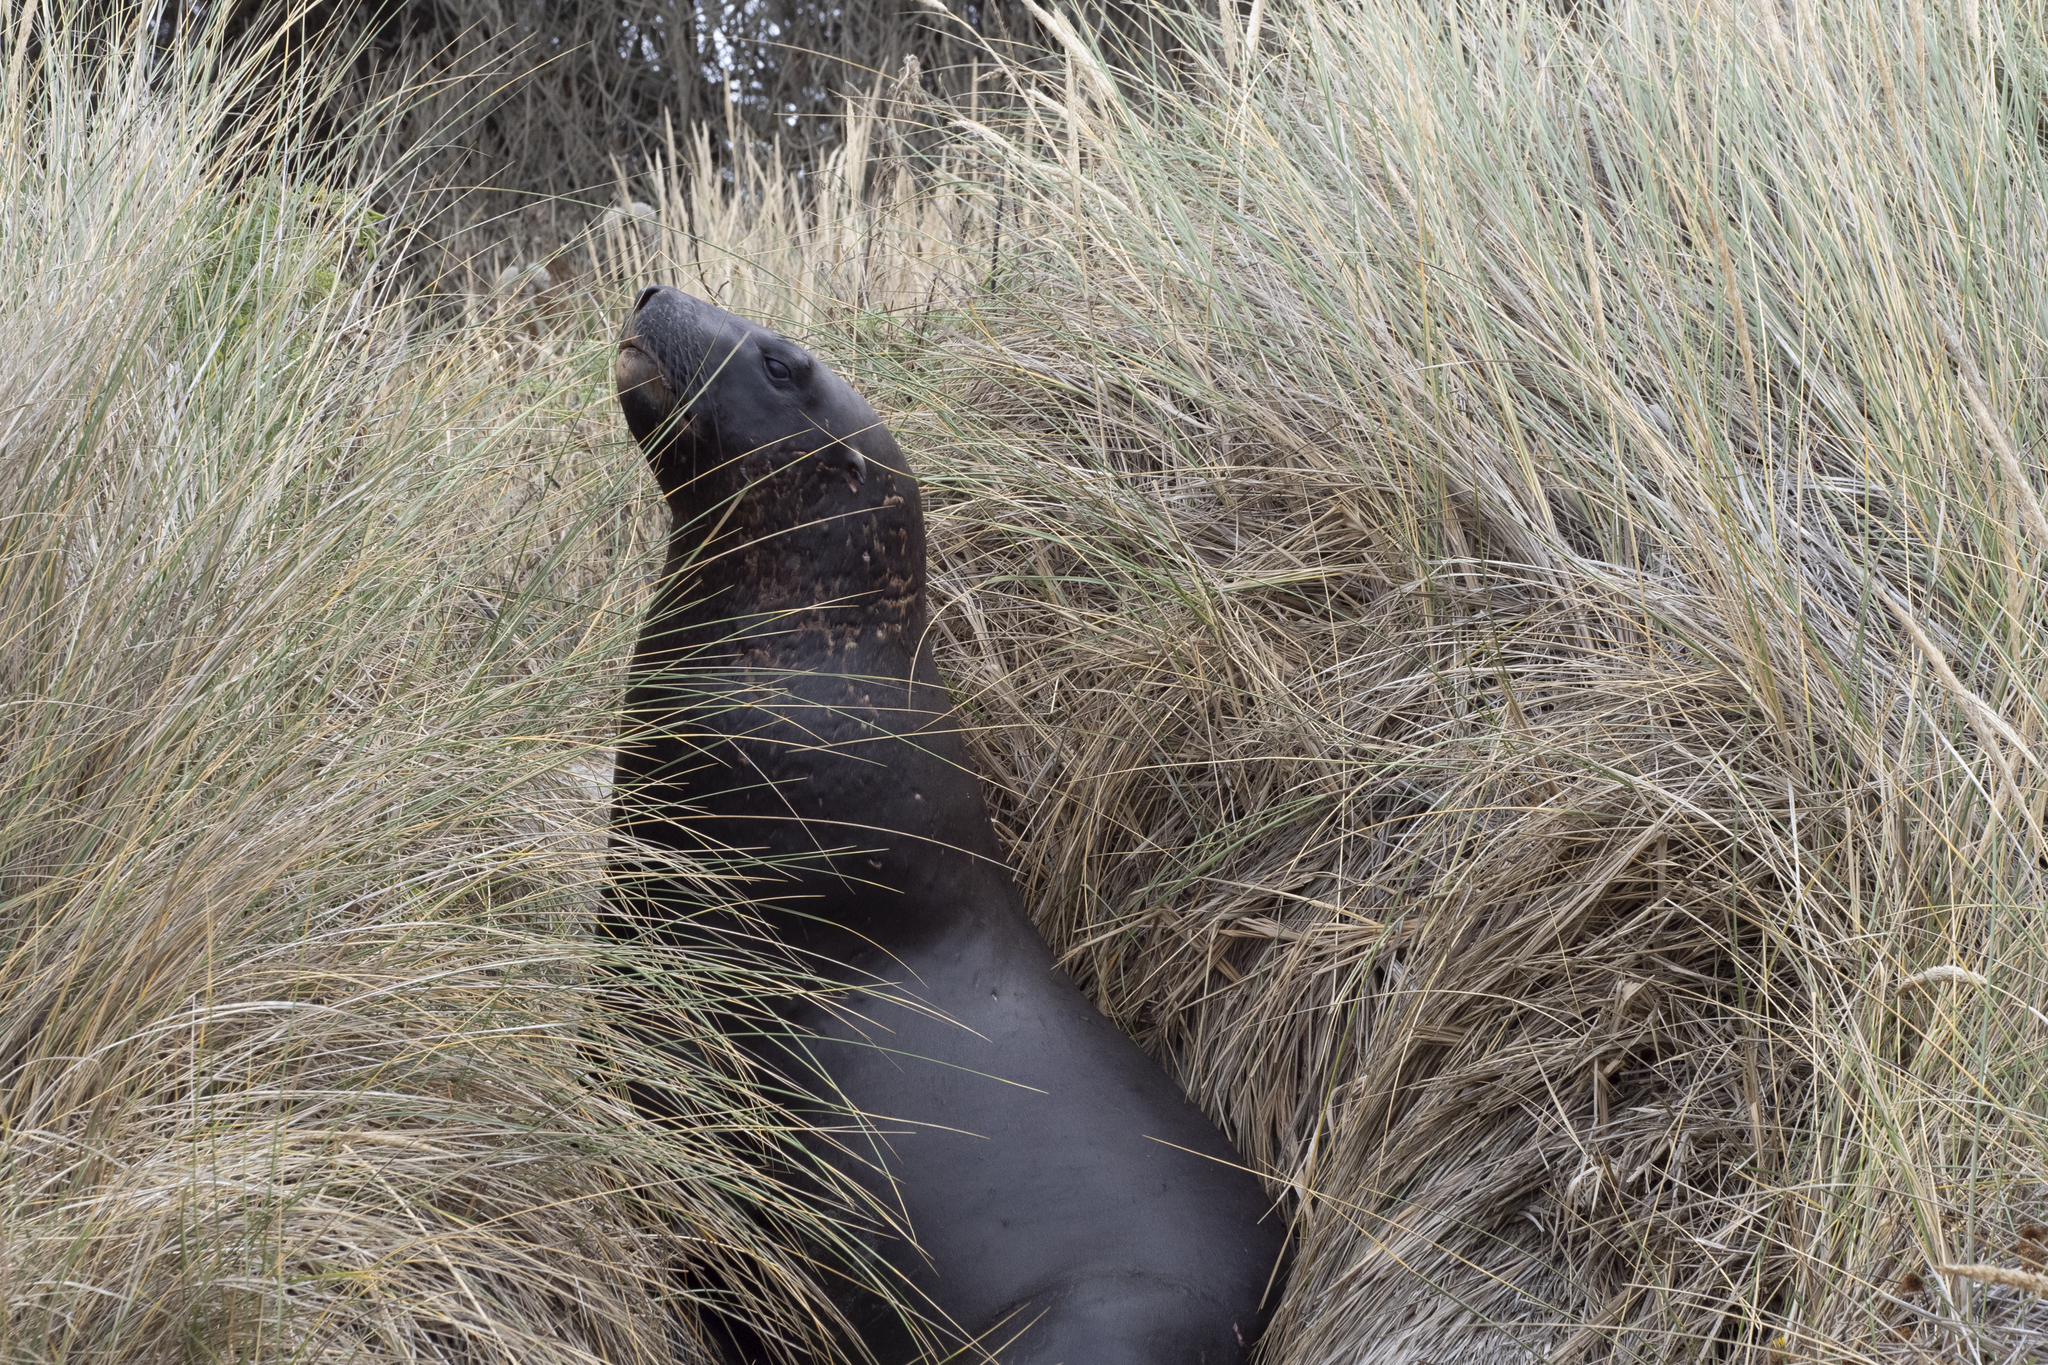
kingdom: Animalia
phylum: Chordata
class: Mammalia
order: Carnivora
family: Otariidae
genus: Phocarctos
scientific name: Phocarctos hookeri
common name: New zealand sea lion
